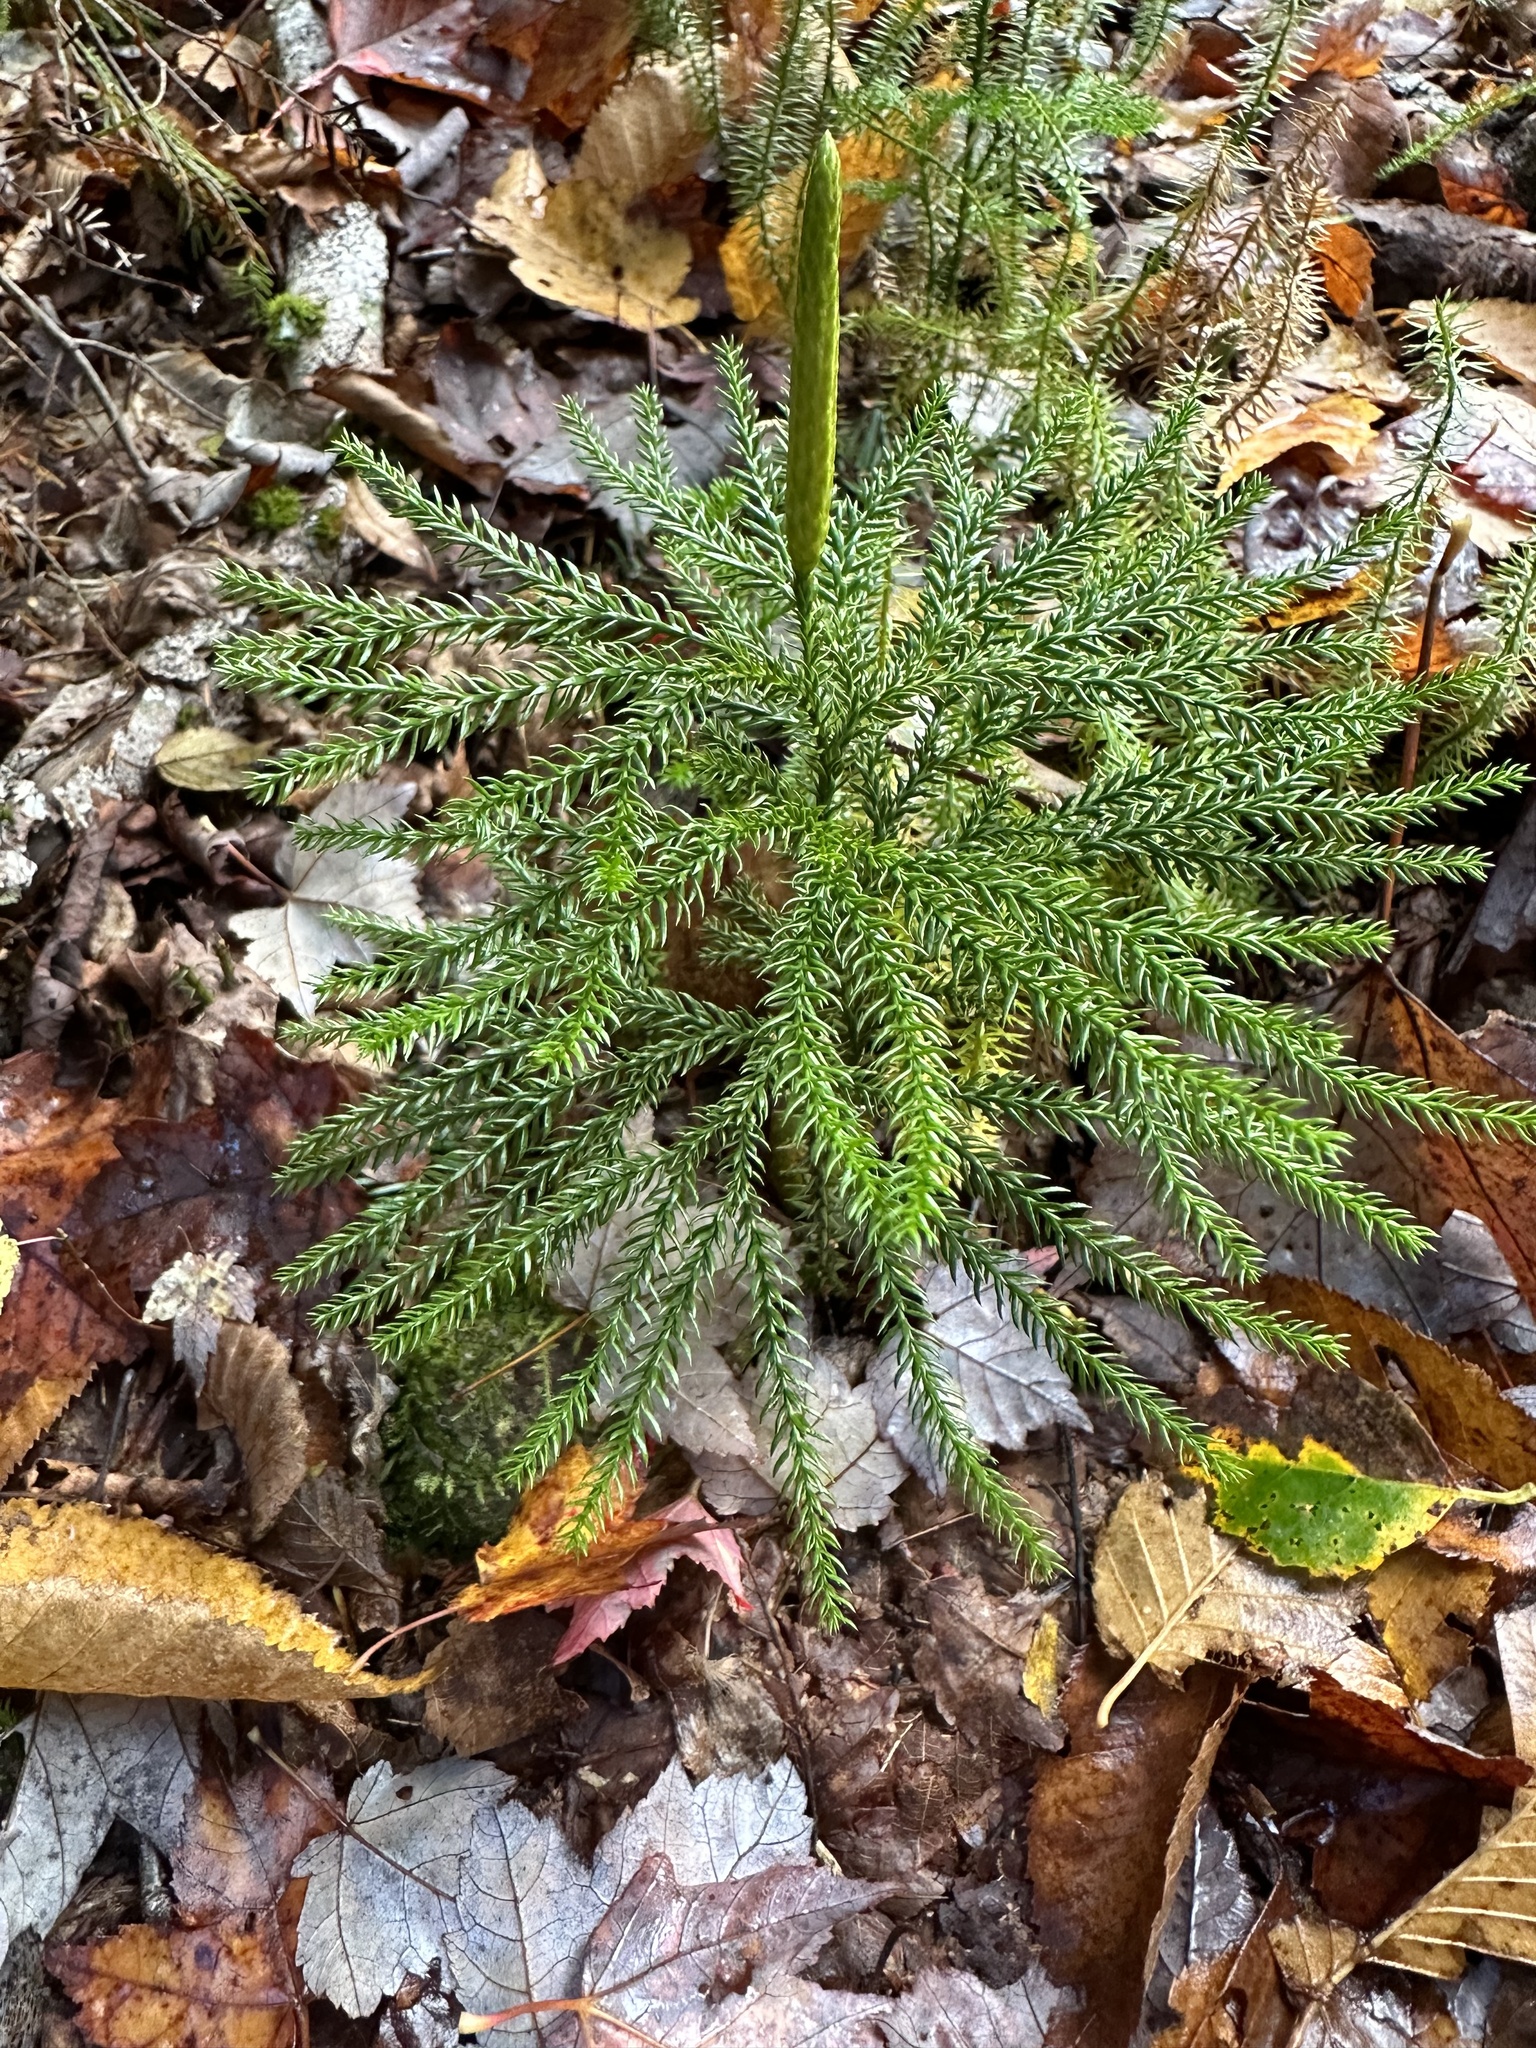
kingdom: Plantae
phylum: Tracheophyta
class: Lycopodiopsida
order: Lycopodiales
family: Lycopodiaceae
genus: Dendrolycopodium
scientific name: Dendrolycopodium dendroideum
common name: Northern tree-clubmoss
